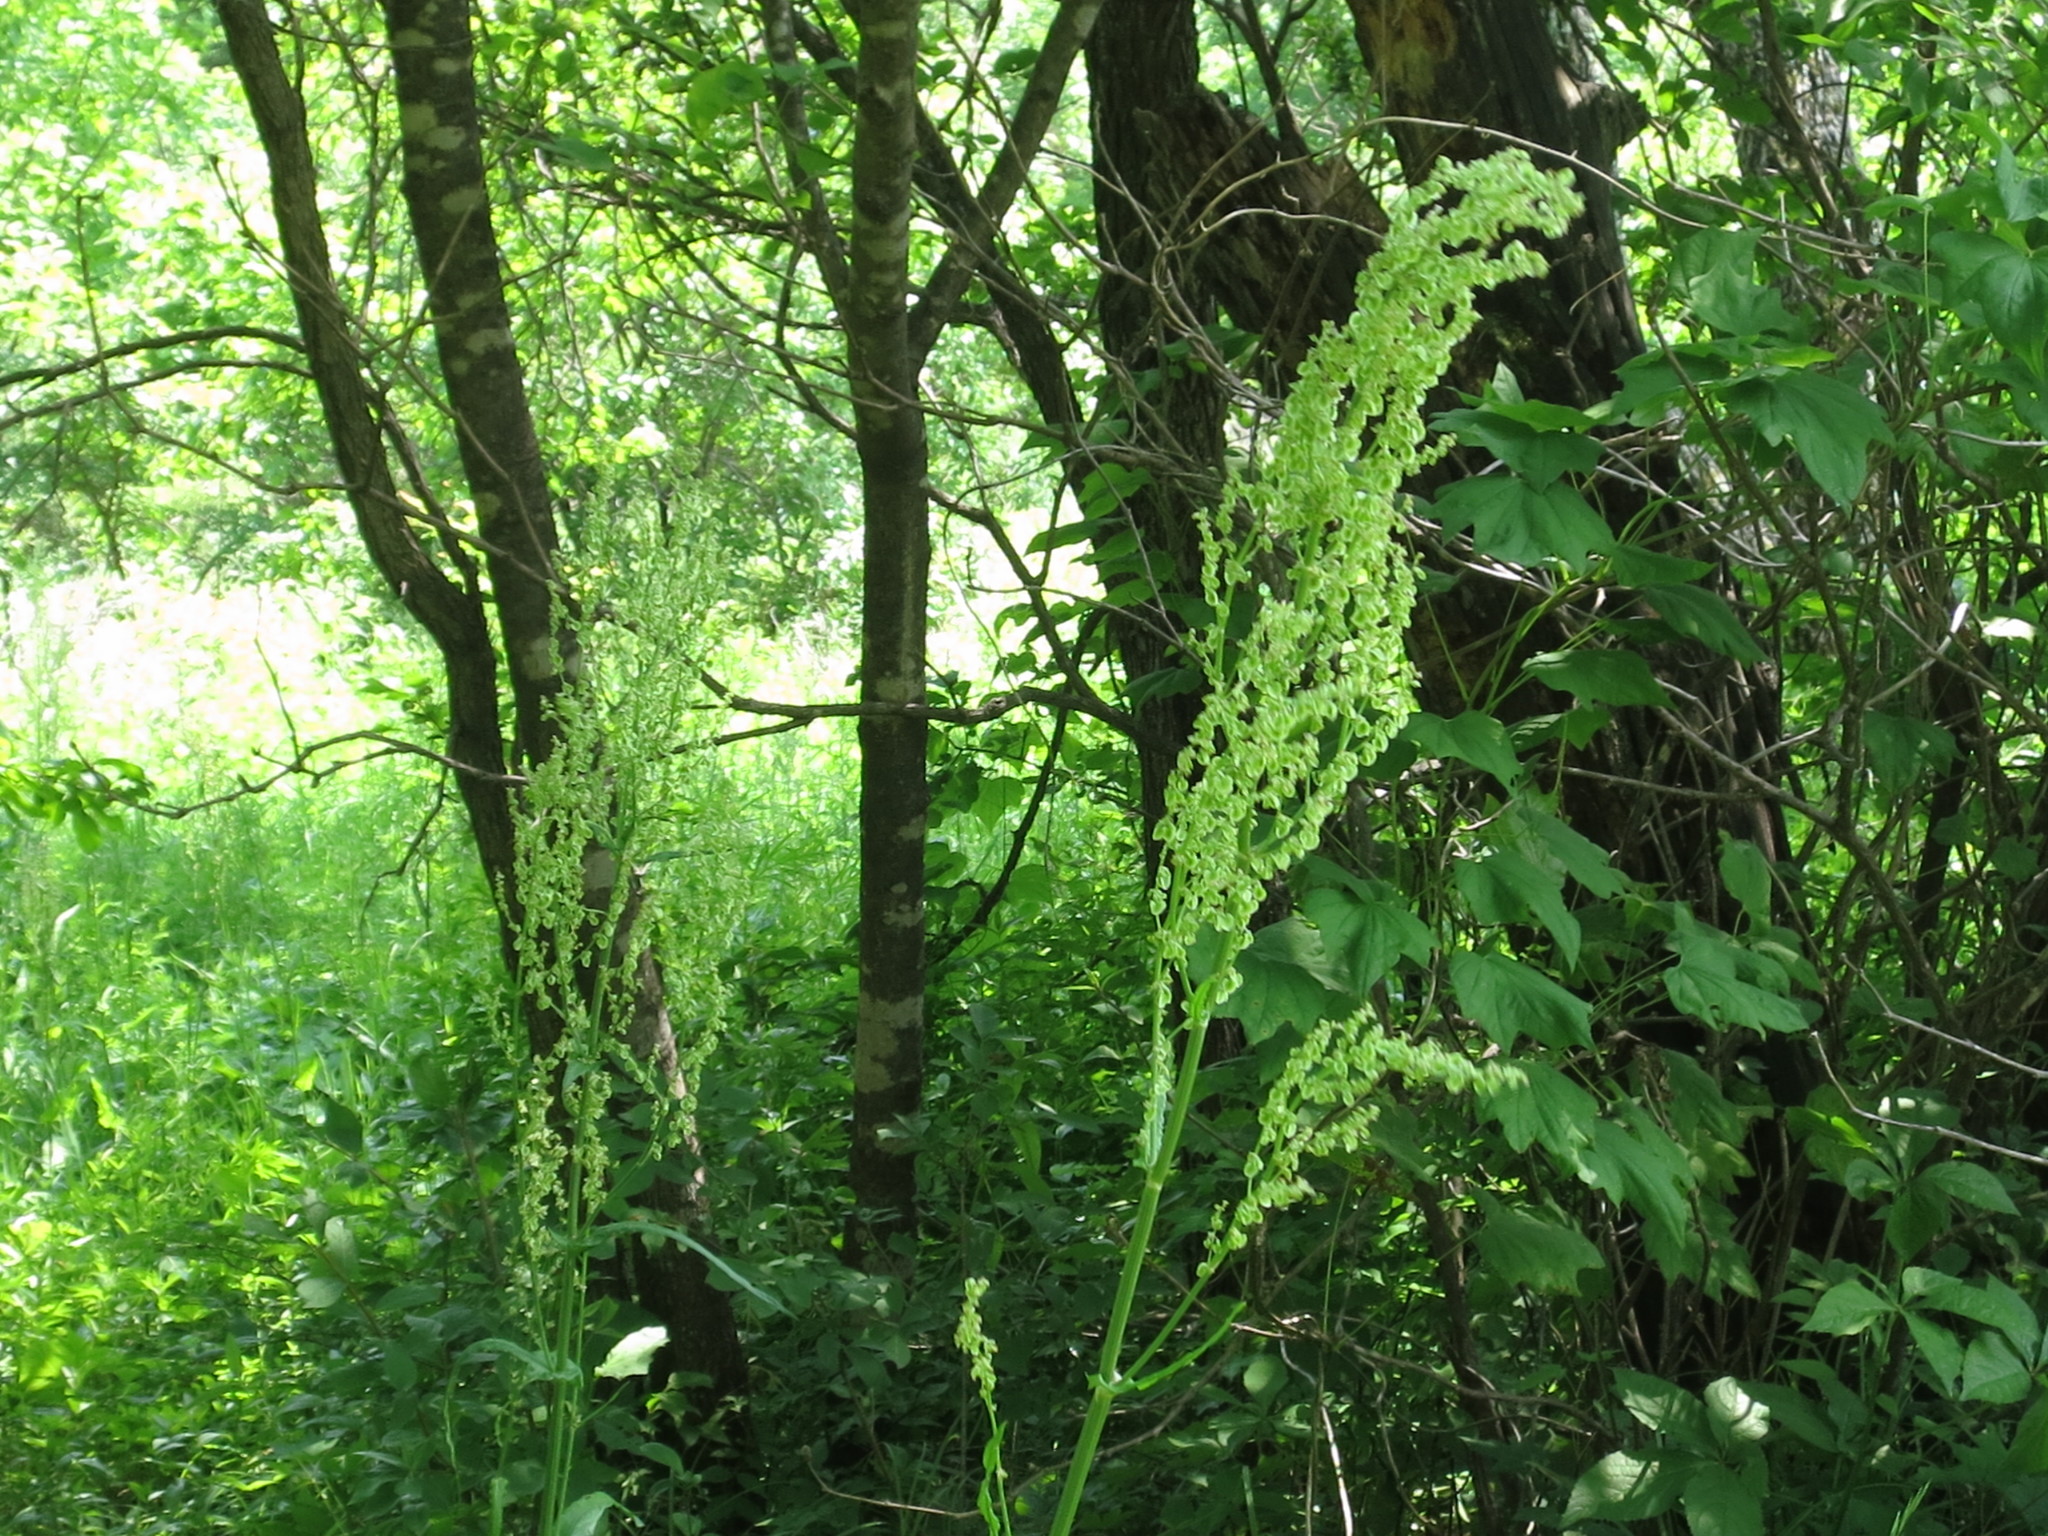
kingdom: Plantae
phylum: Tracheophyta
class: Magnoliopsida
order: Caryophyllales
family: Polygonaceae
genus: Rumex
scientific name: Rumex longifolius
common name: Dooryard dock
